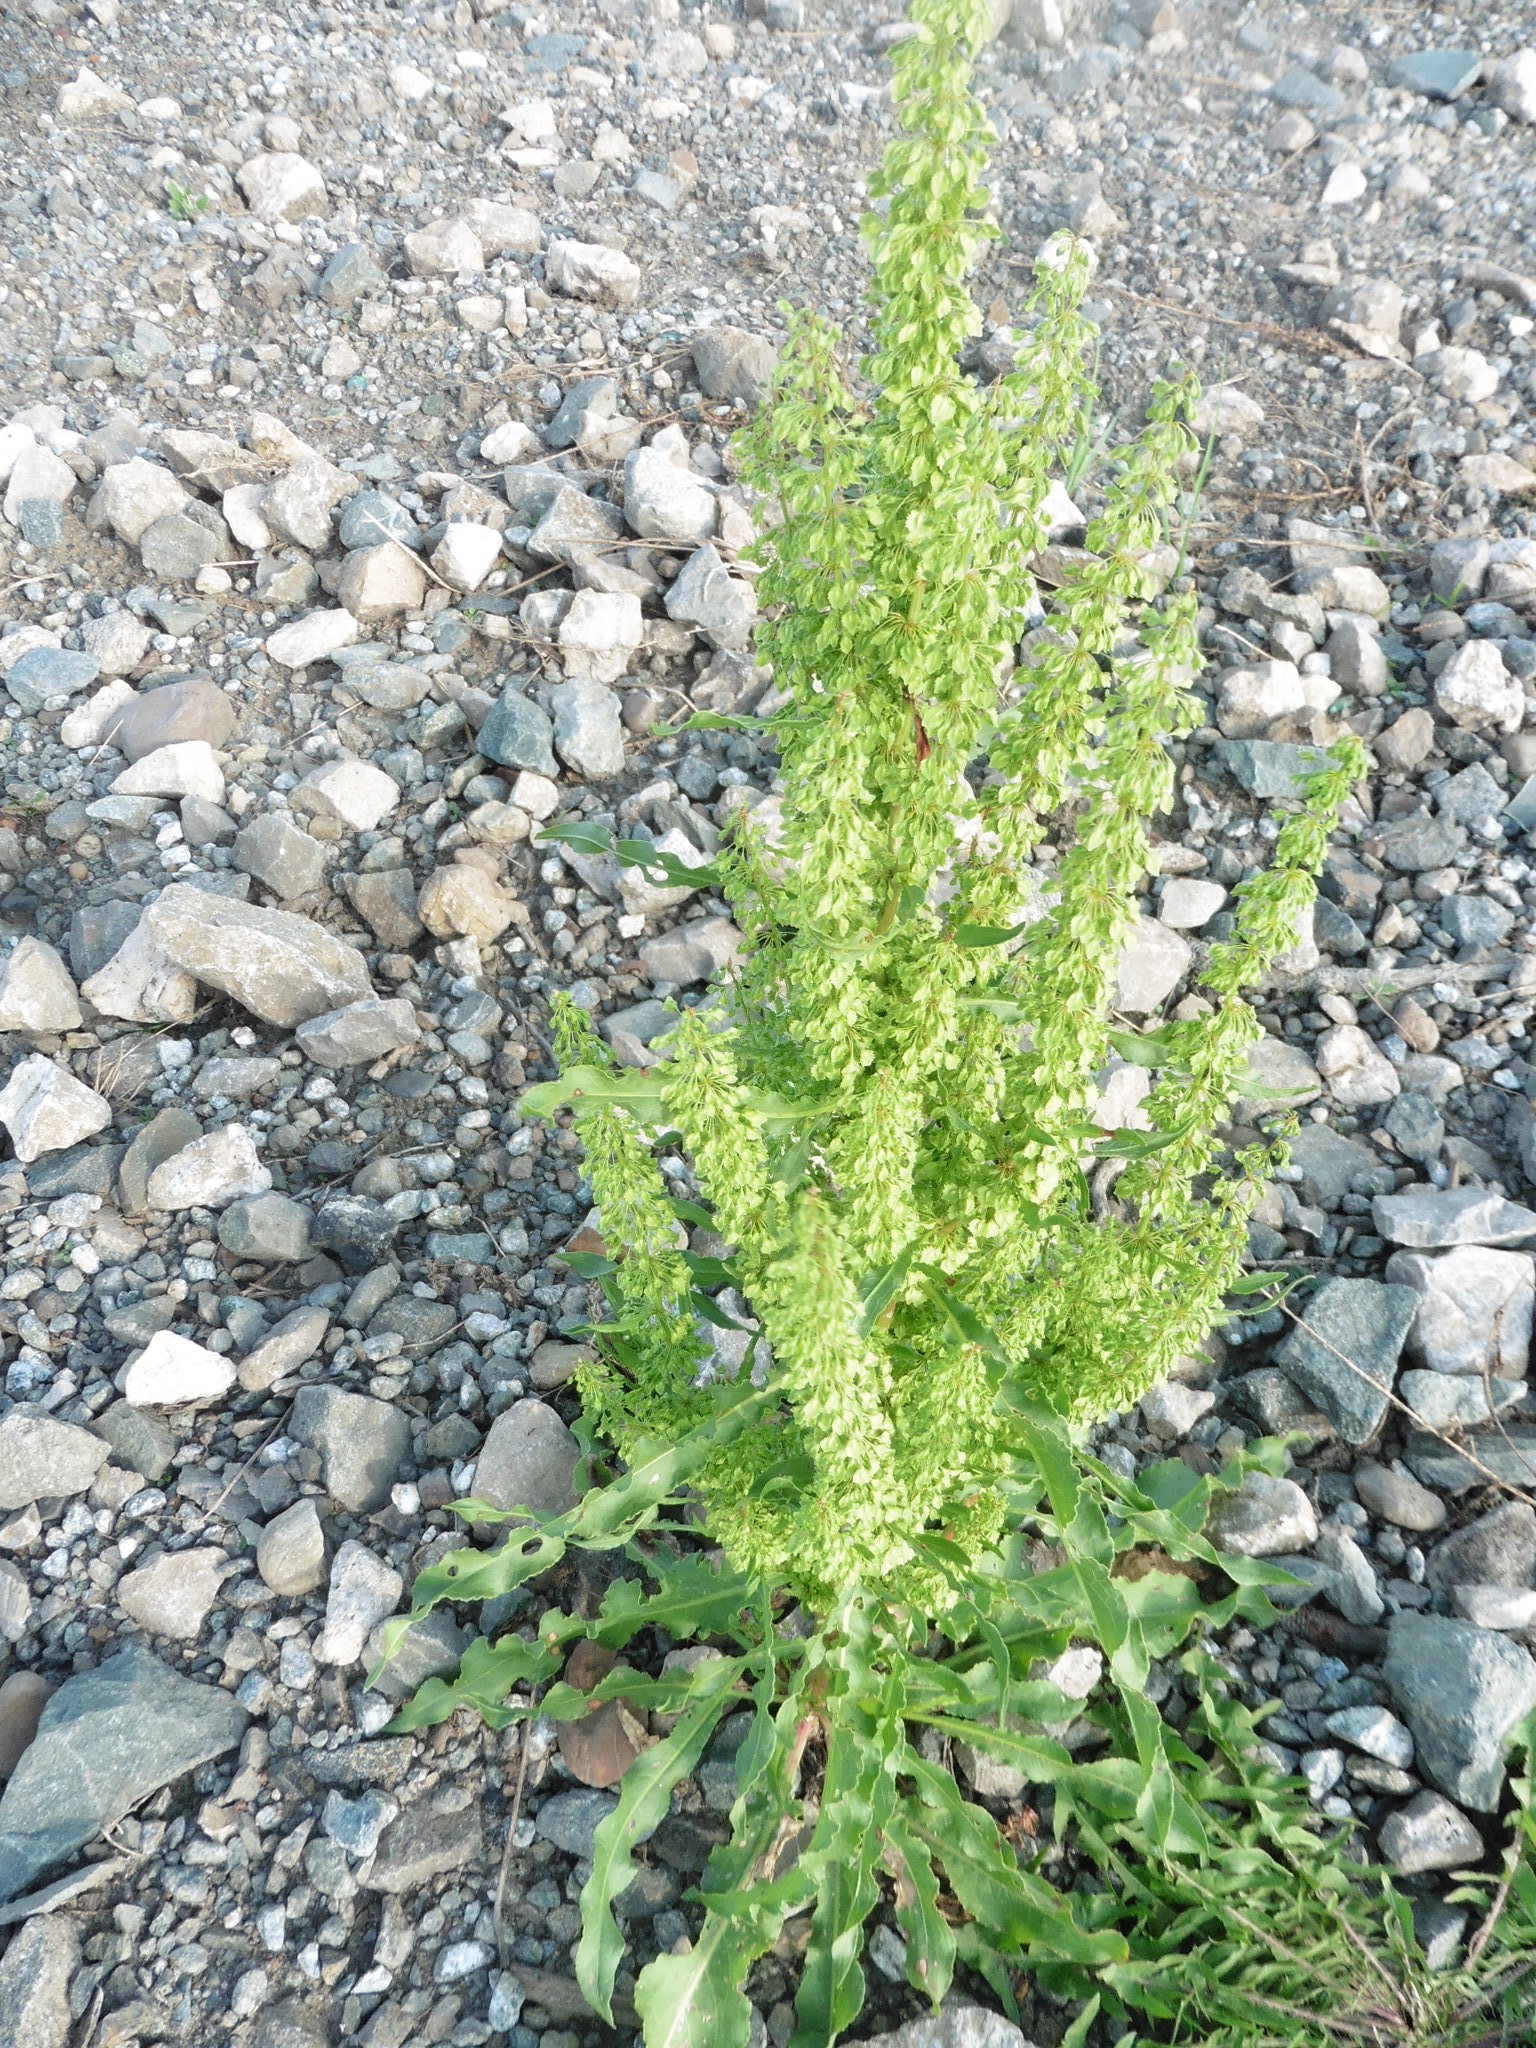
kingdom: Plantae
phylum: Tracheophyta
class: Magnoliopsida
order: Caryophyllales
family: Polygonaceae
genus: Rumex
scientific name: Rumex crispus
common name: Curled dock
